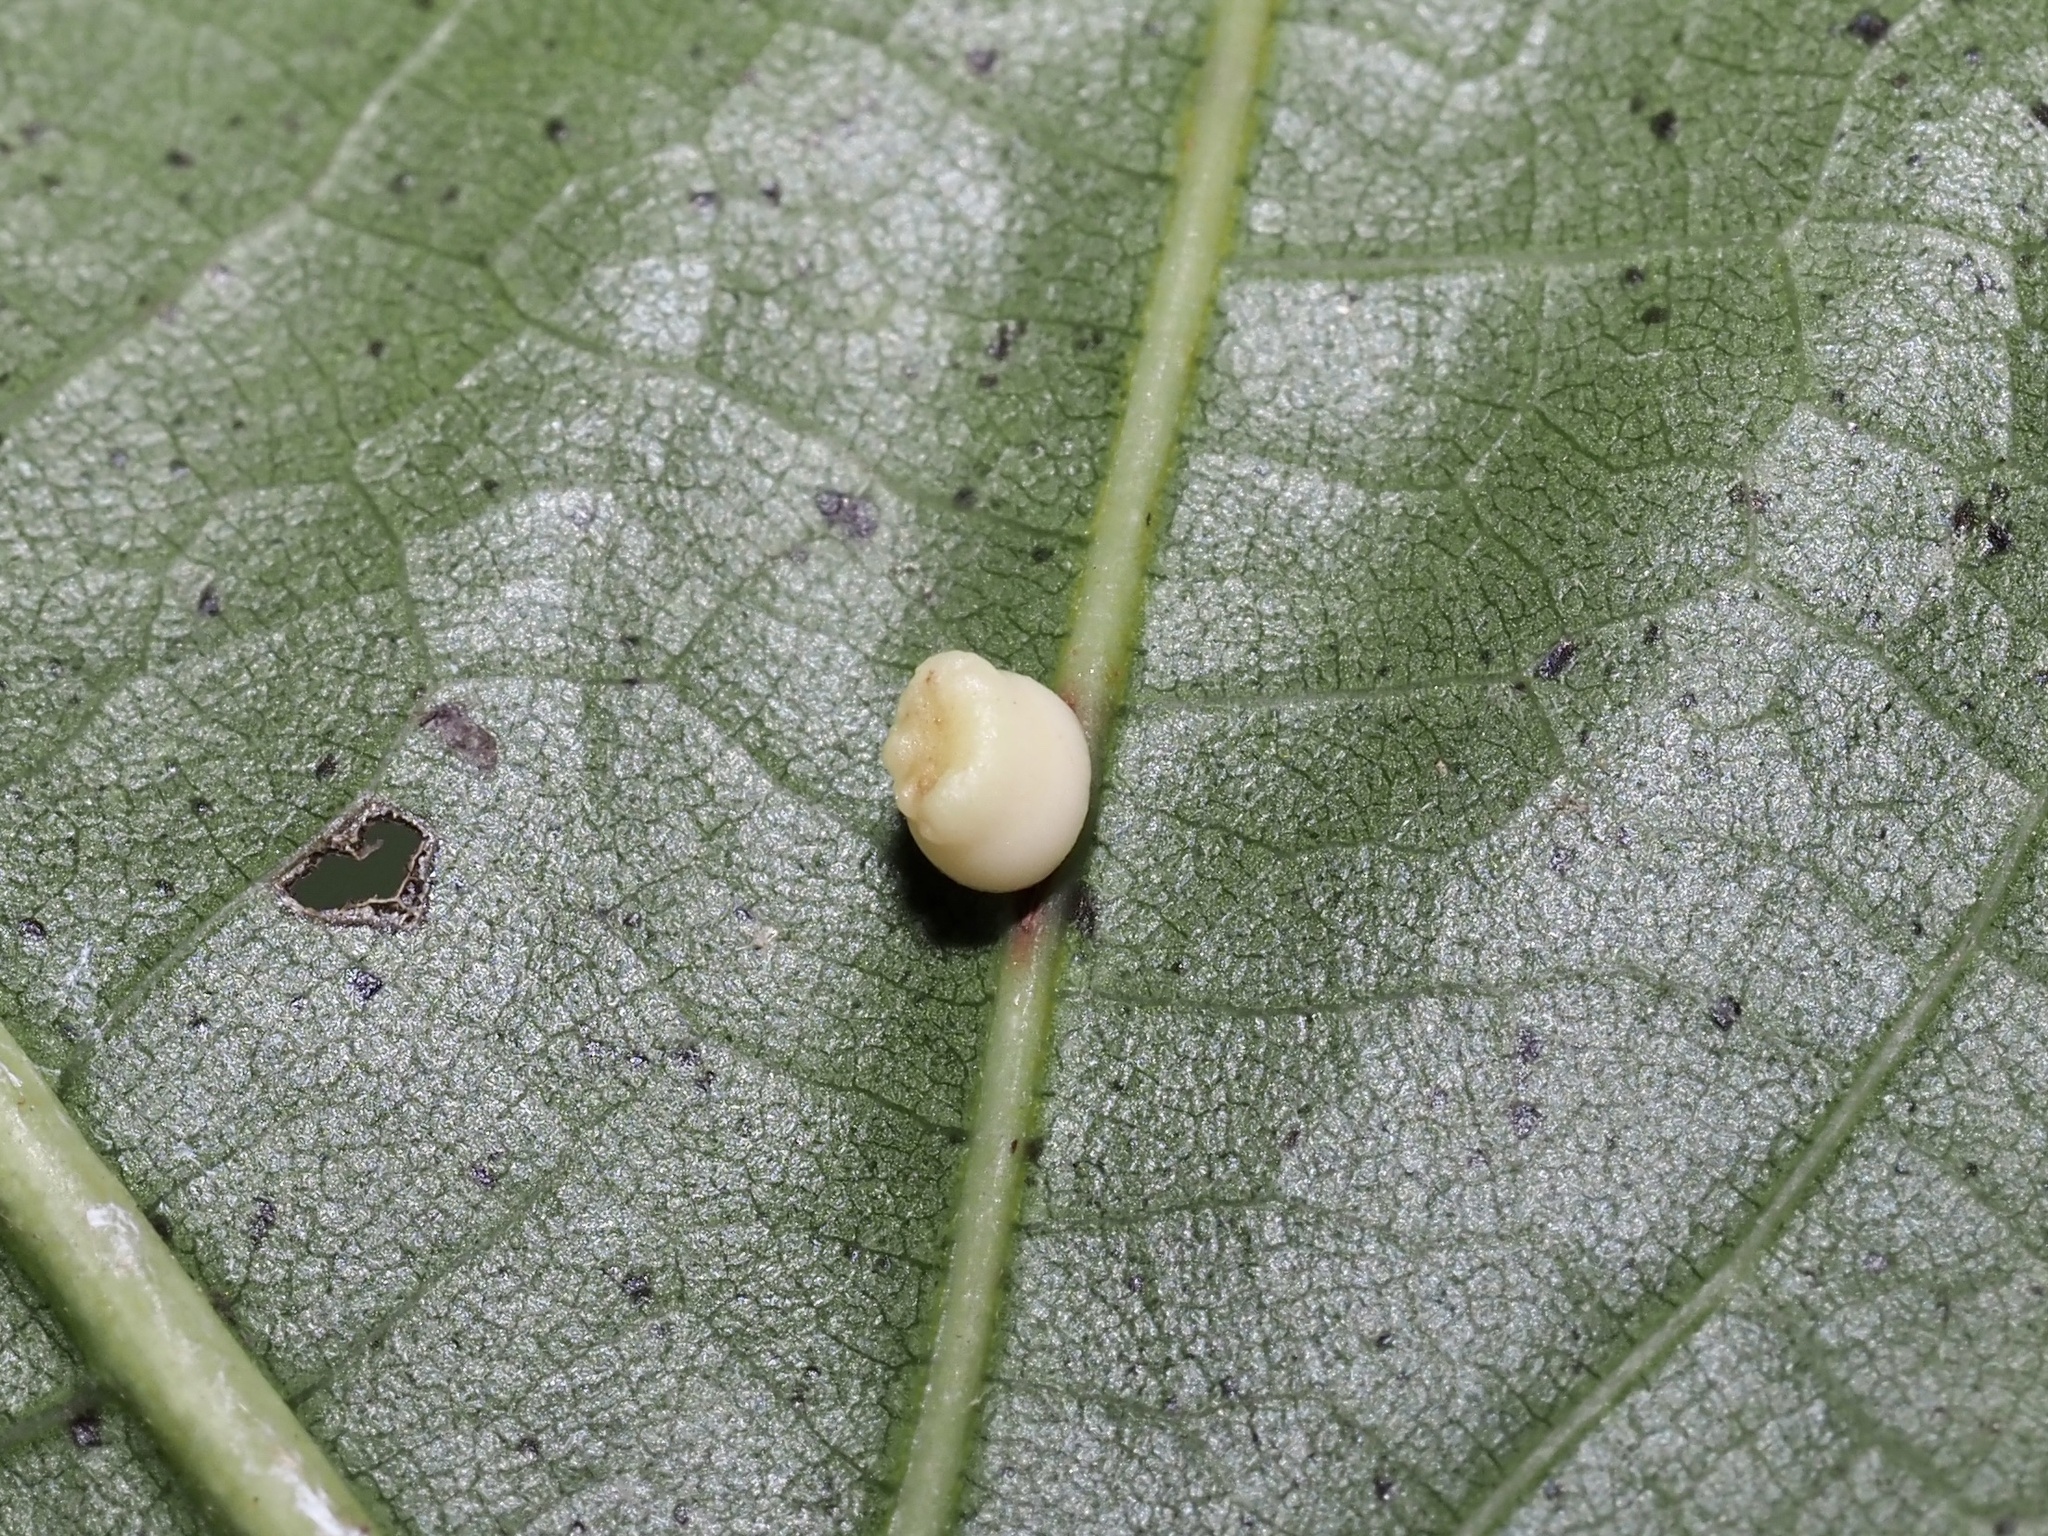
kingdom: Animalia
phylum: Arthropoda
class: Insecta
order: Hymenoptera
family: Cynipidae
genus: Kokkocynips
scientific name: Kokkocynips rileyi
